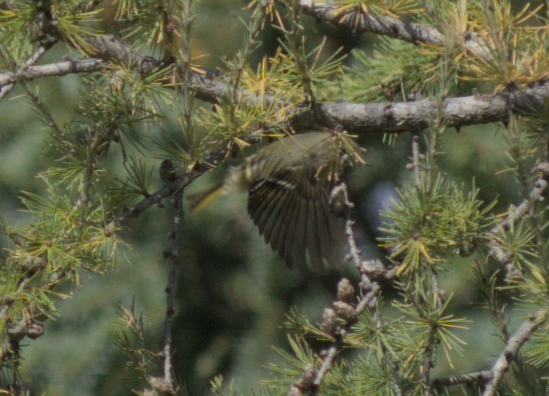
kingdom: Animalia
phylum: Chordata
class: Aves
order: Passeriformes
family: Regulidae
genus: Regulus
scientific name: Regulus calendula
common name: Ruby-crowned kinglet
